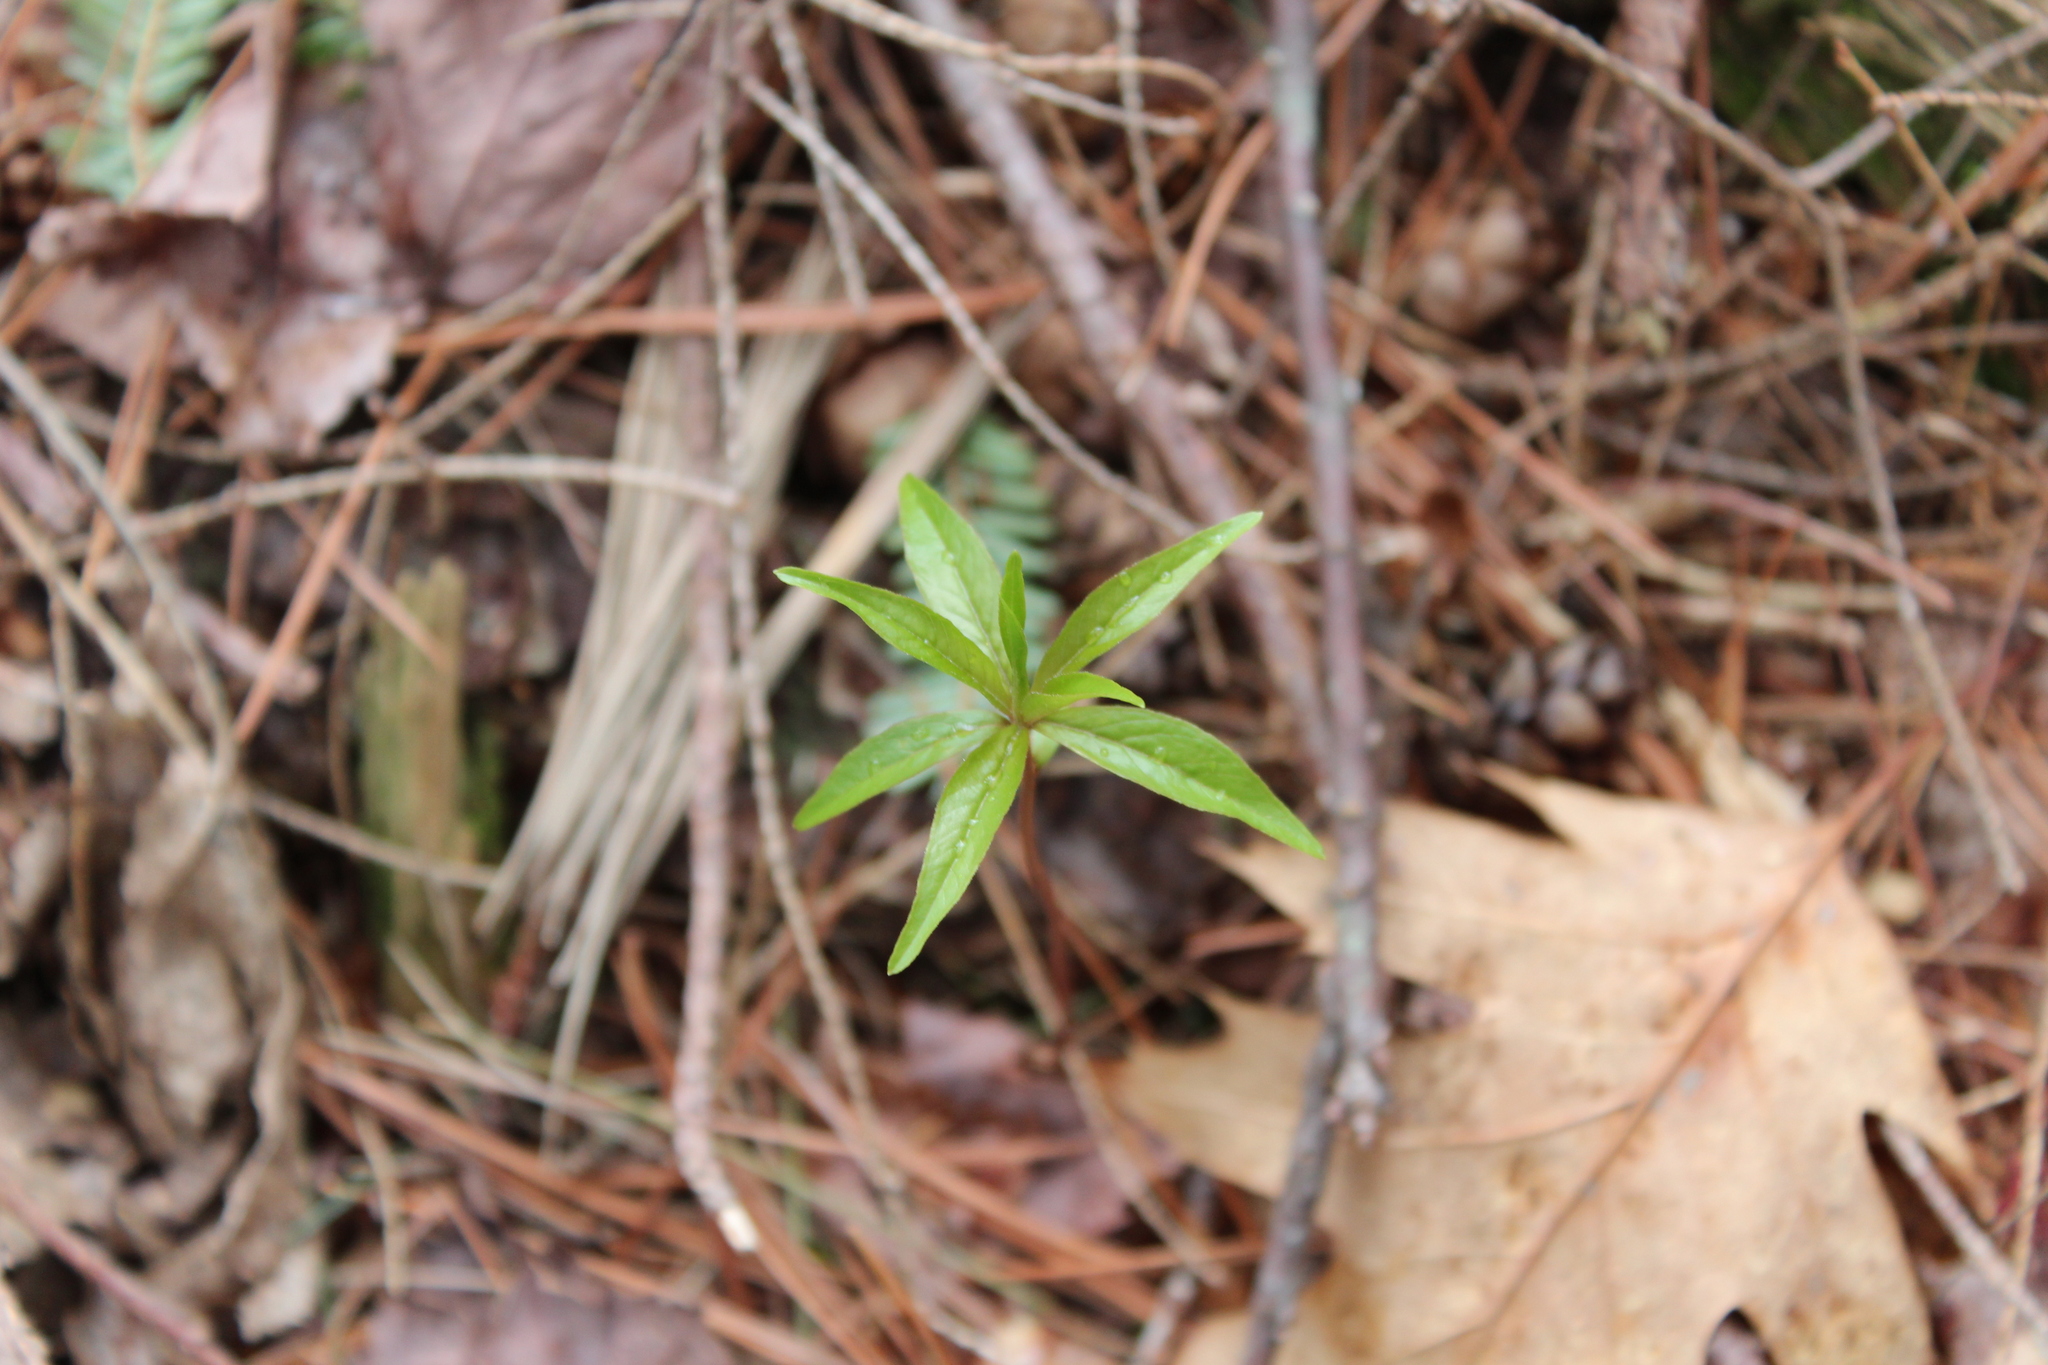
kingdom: Plantae
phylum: Tracheophyta
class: Magnoliopsida
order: Ericales
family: Primulaceae
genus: Lysimachia
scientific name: Lysimachia borealis
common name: American starflower
